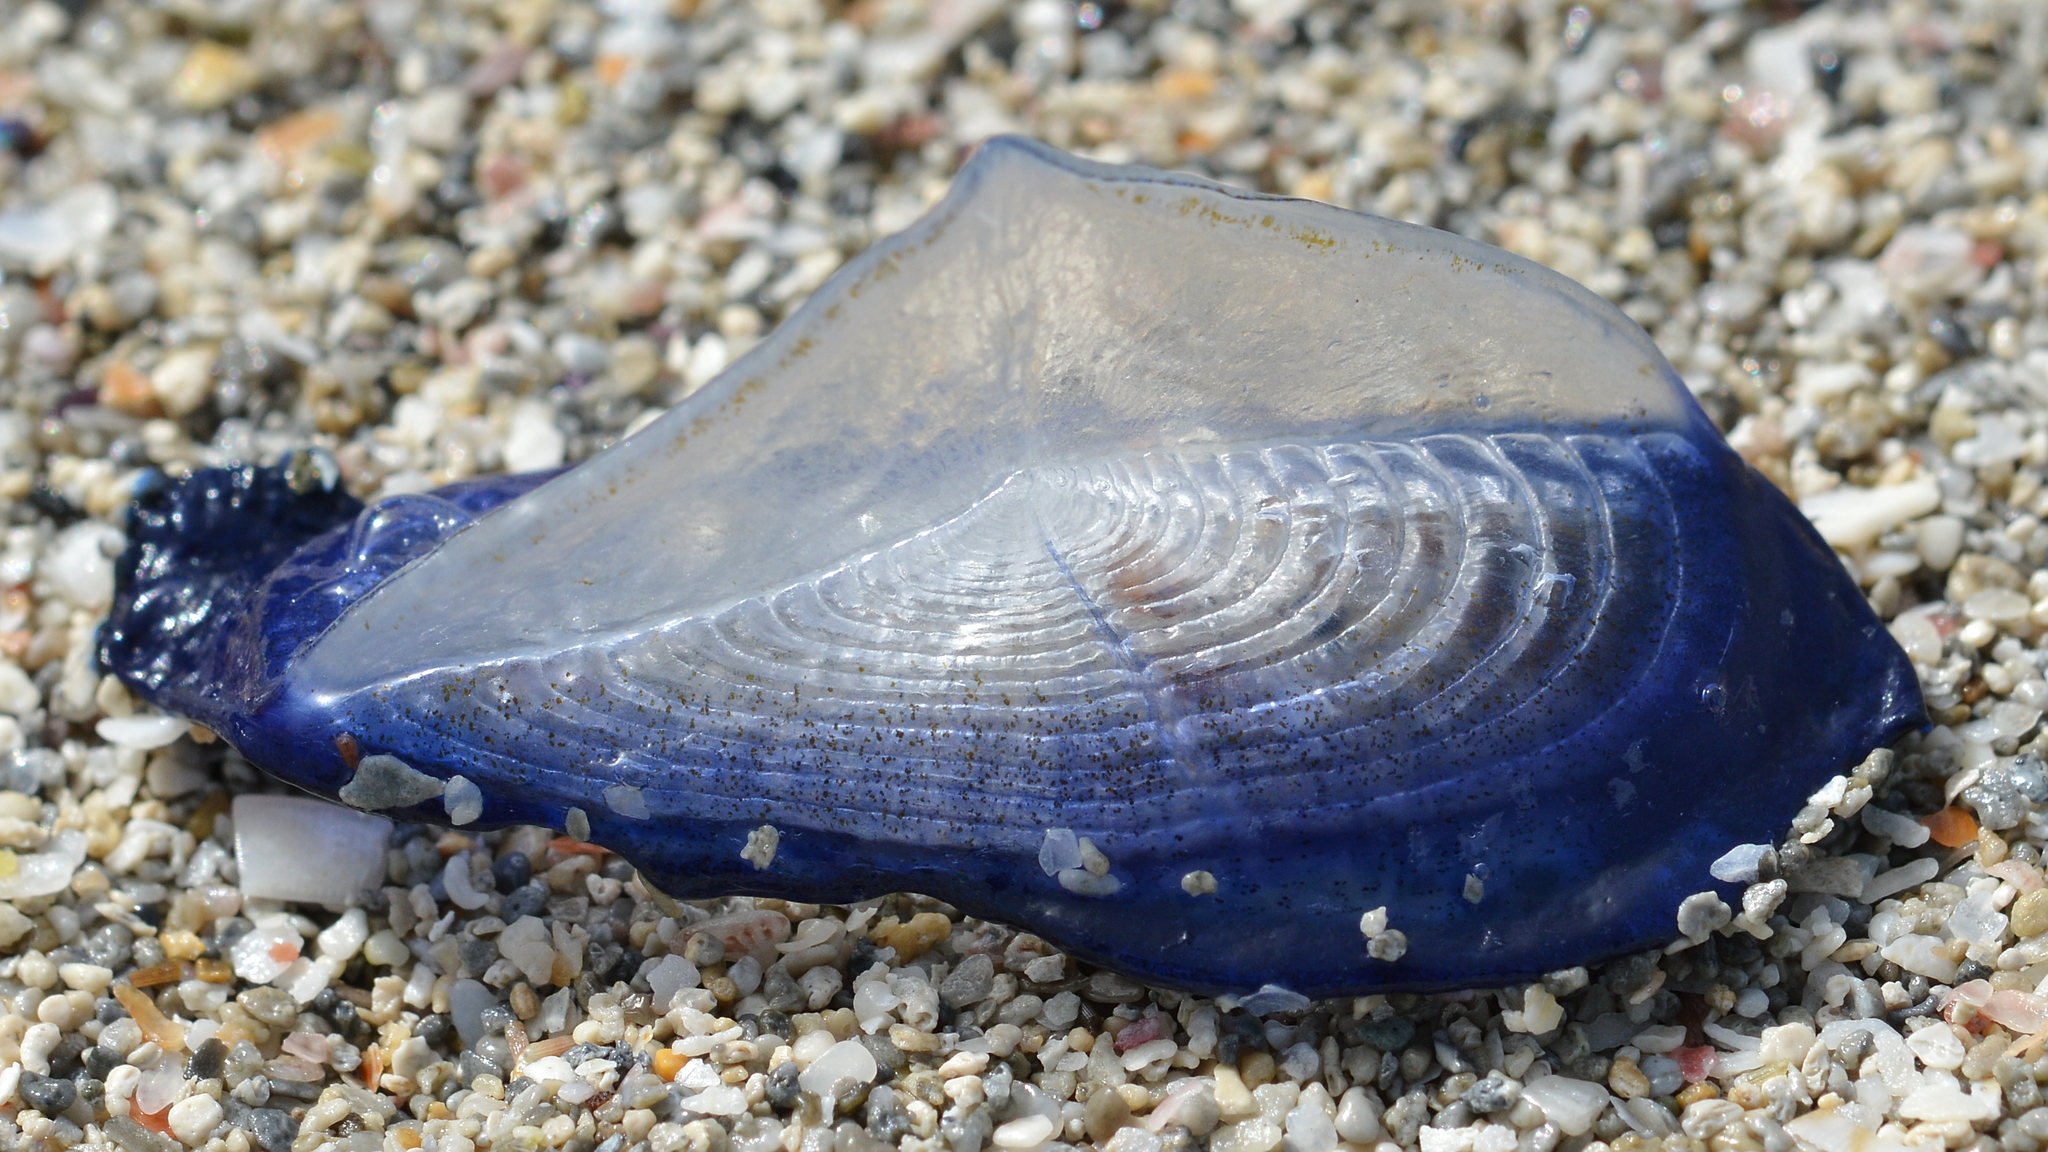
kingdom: Animalia
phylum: Cnidaria
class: Hydrozoa
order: Anthoathecata
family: Porpitidae
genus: Velella
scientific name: Velella velella
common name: By-the-wind-sailor
